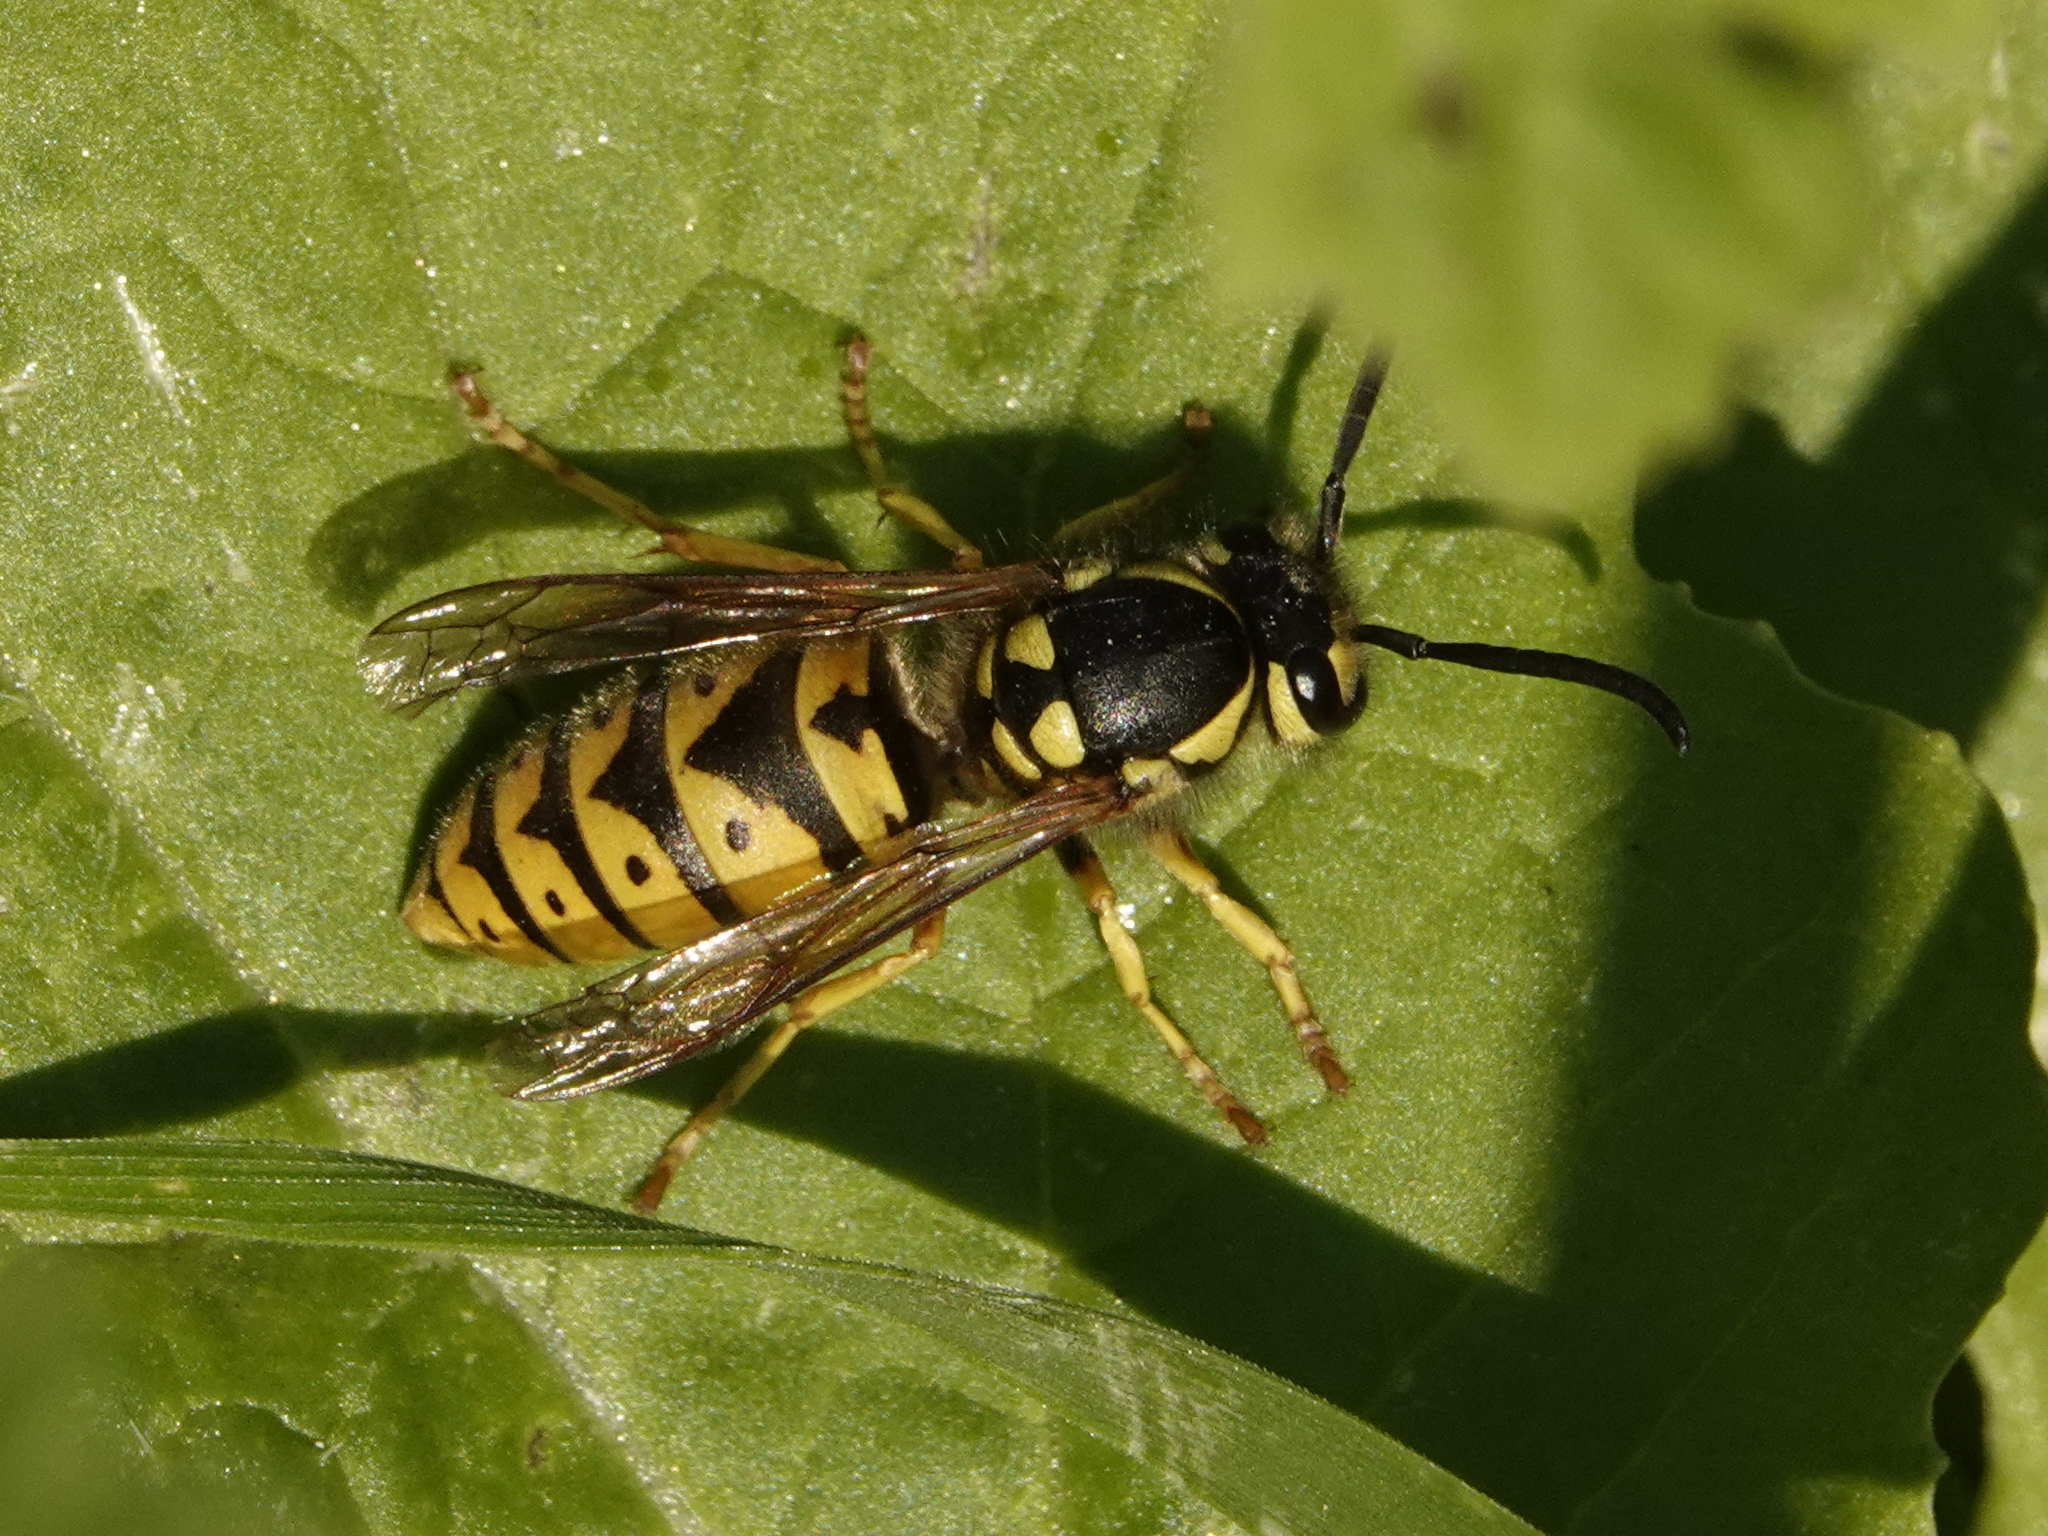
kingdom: Animalia
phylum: Arthropoda
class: Insecta
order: Hymenoptera
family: Vespidae
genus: Vespula
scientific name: Vespula germanica
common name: German wasp
